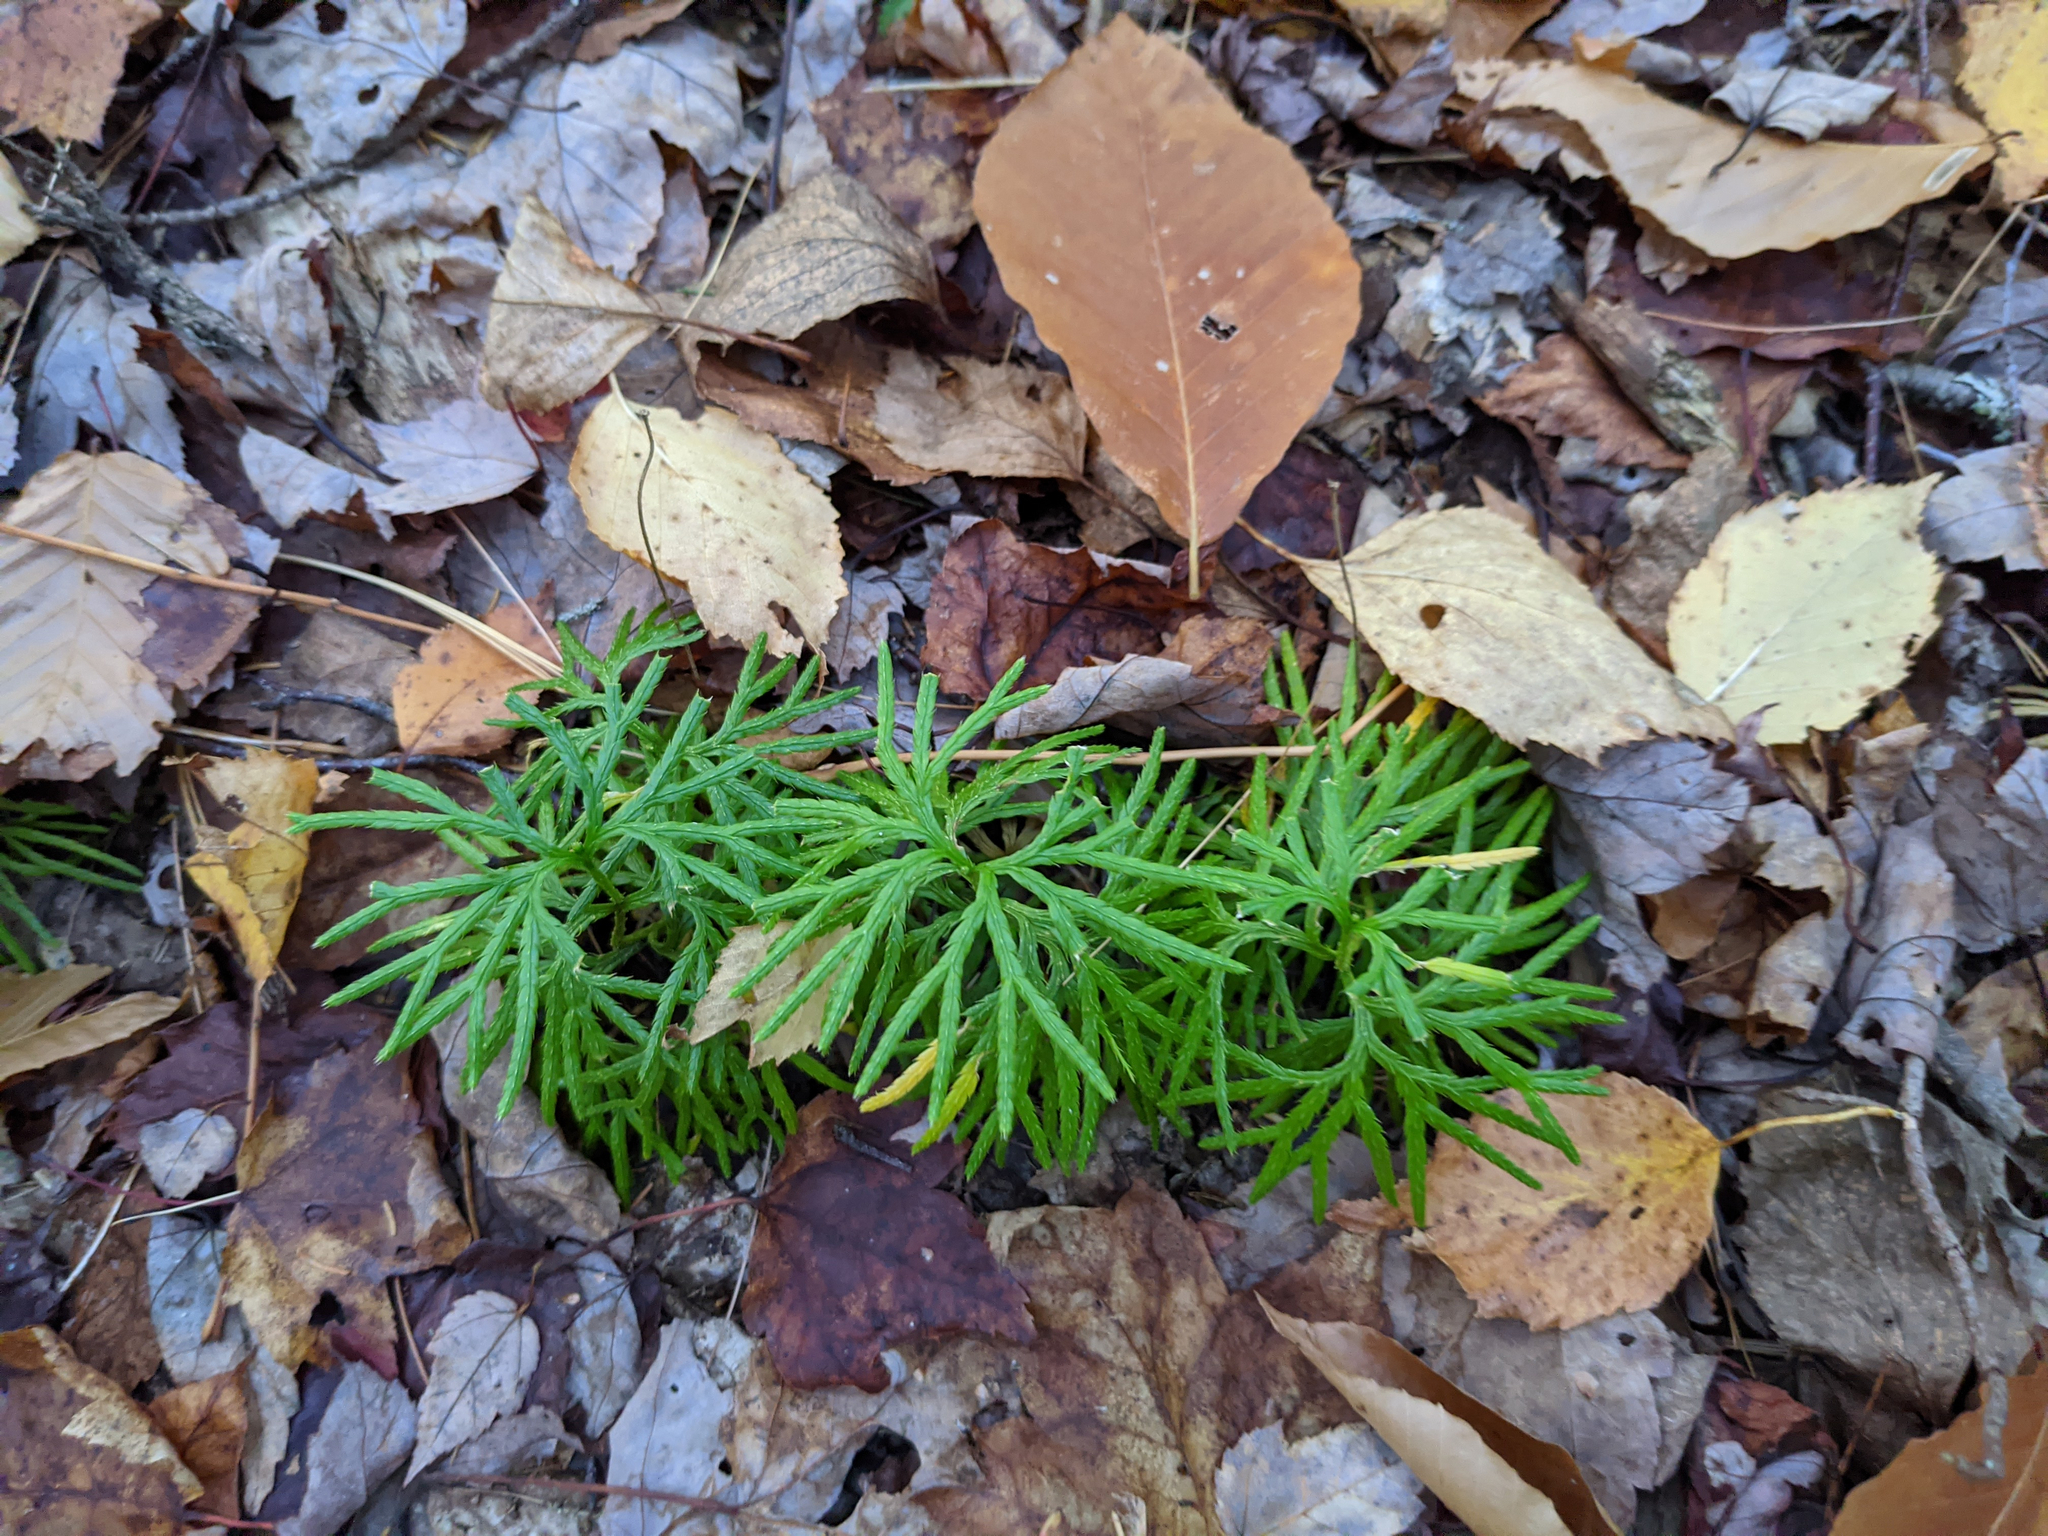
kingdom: Plantae
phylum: Tracheophyta
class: Lycopodiopsida
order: Lycopodiales
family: Lycopodiaceae
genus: Diphasiastrum
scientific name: Diphasiastrum digitatum
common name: Southern running-pine
